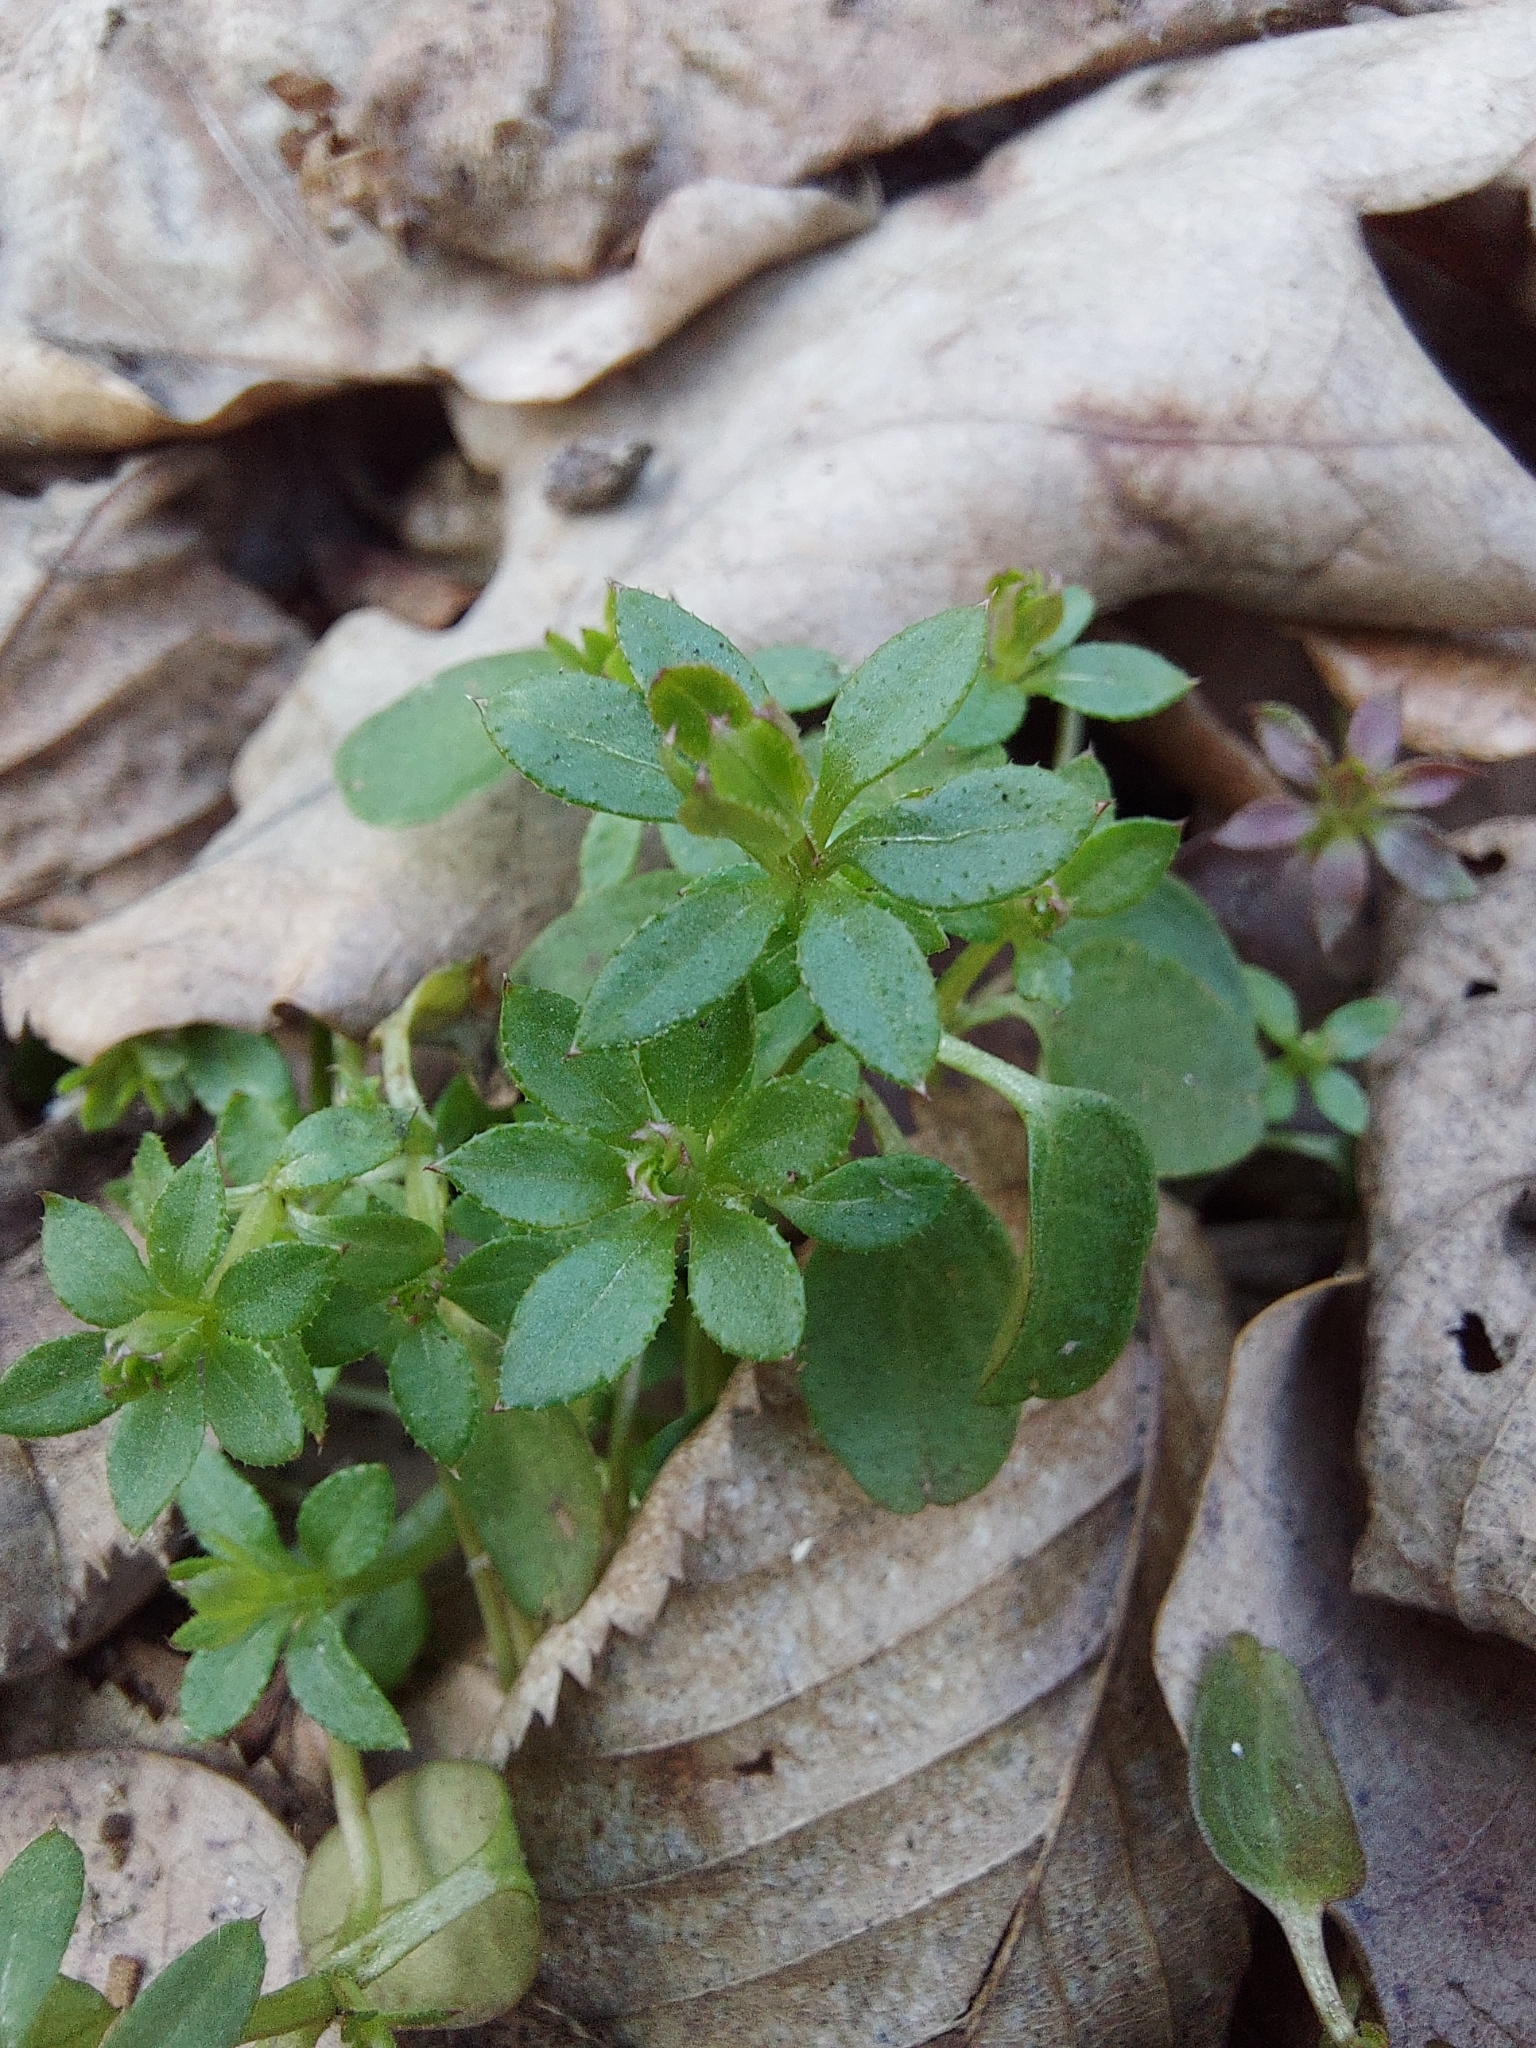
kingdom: Plantae
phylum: Tracheophyta
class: Magnoliopsida
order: Gentianales
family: Rubiaceae
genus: Galium
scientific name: Galium aparine
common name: Cleavers
